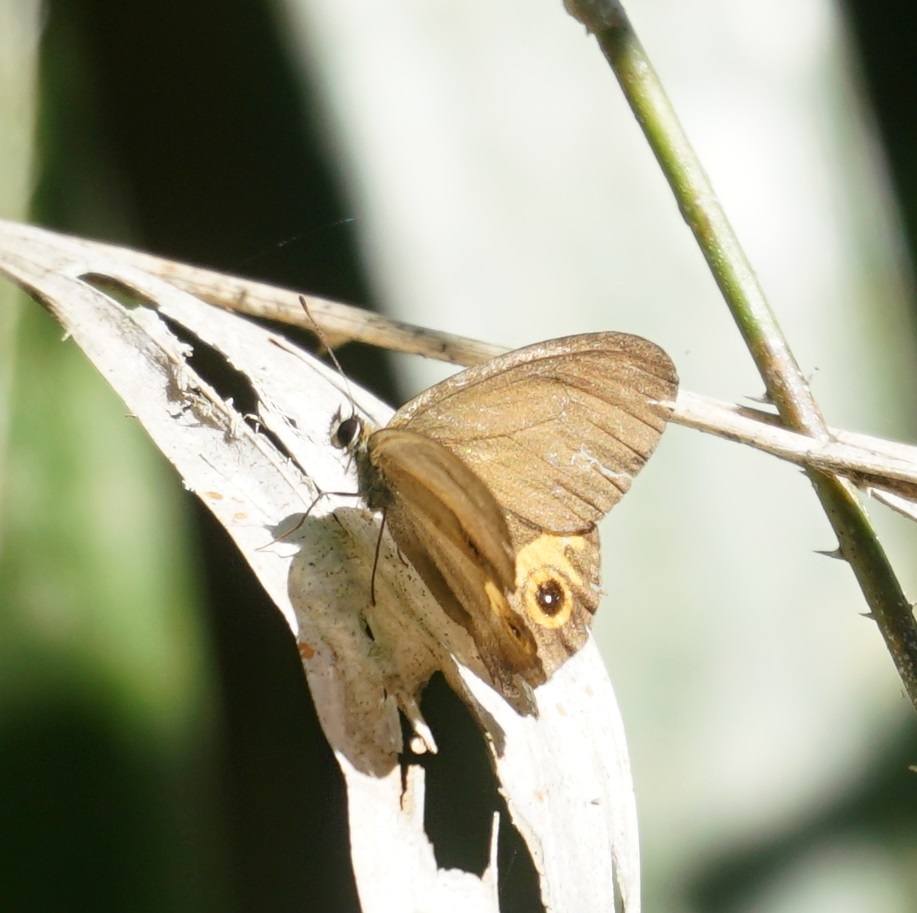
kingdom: Animalia
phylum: Arthropoda
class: Insecta
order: Lepidoptera
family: Nymphalidae
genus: Hypocysta
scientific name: Hypocysta metirius
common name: Brown ringlet
